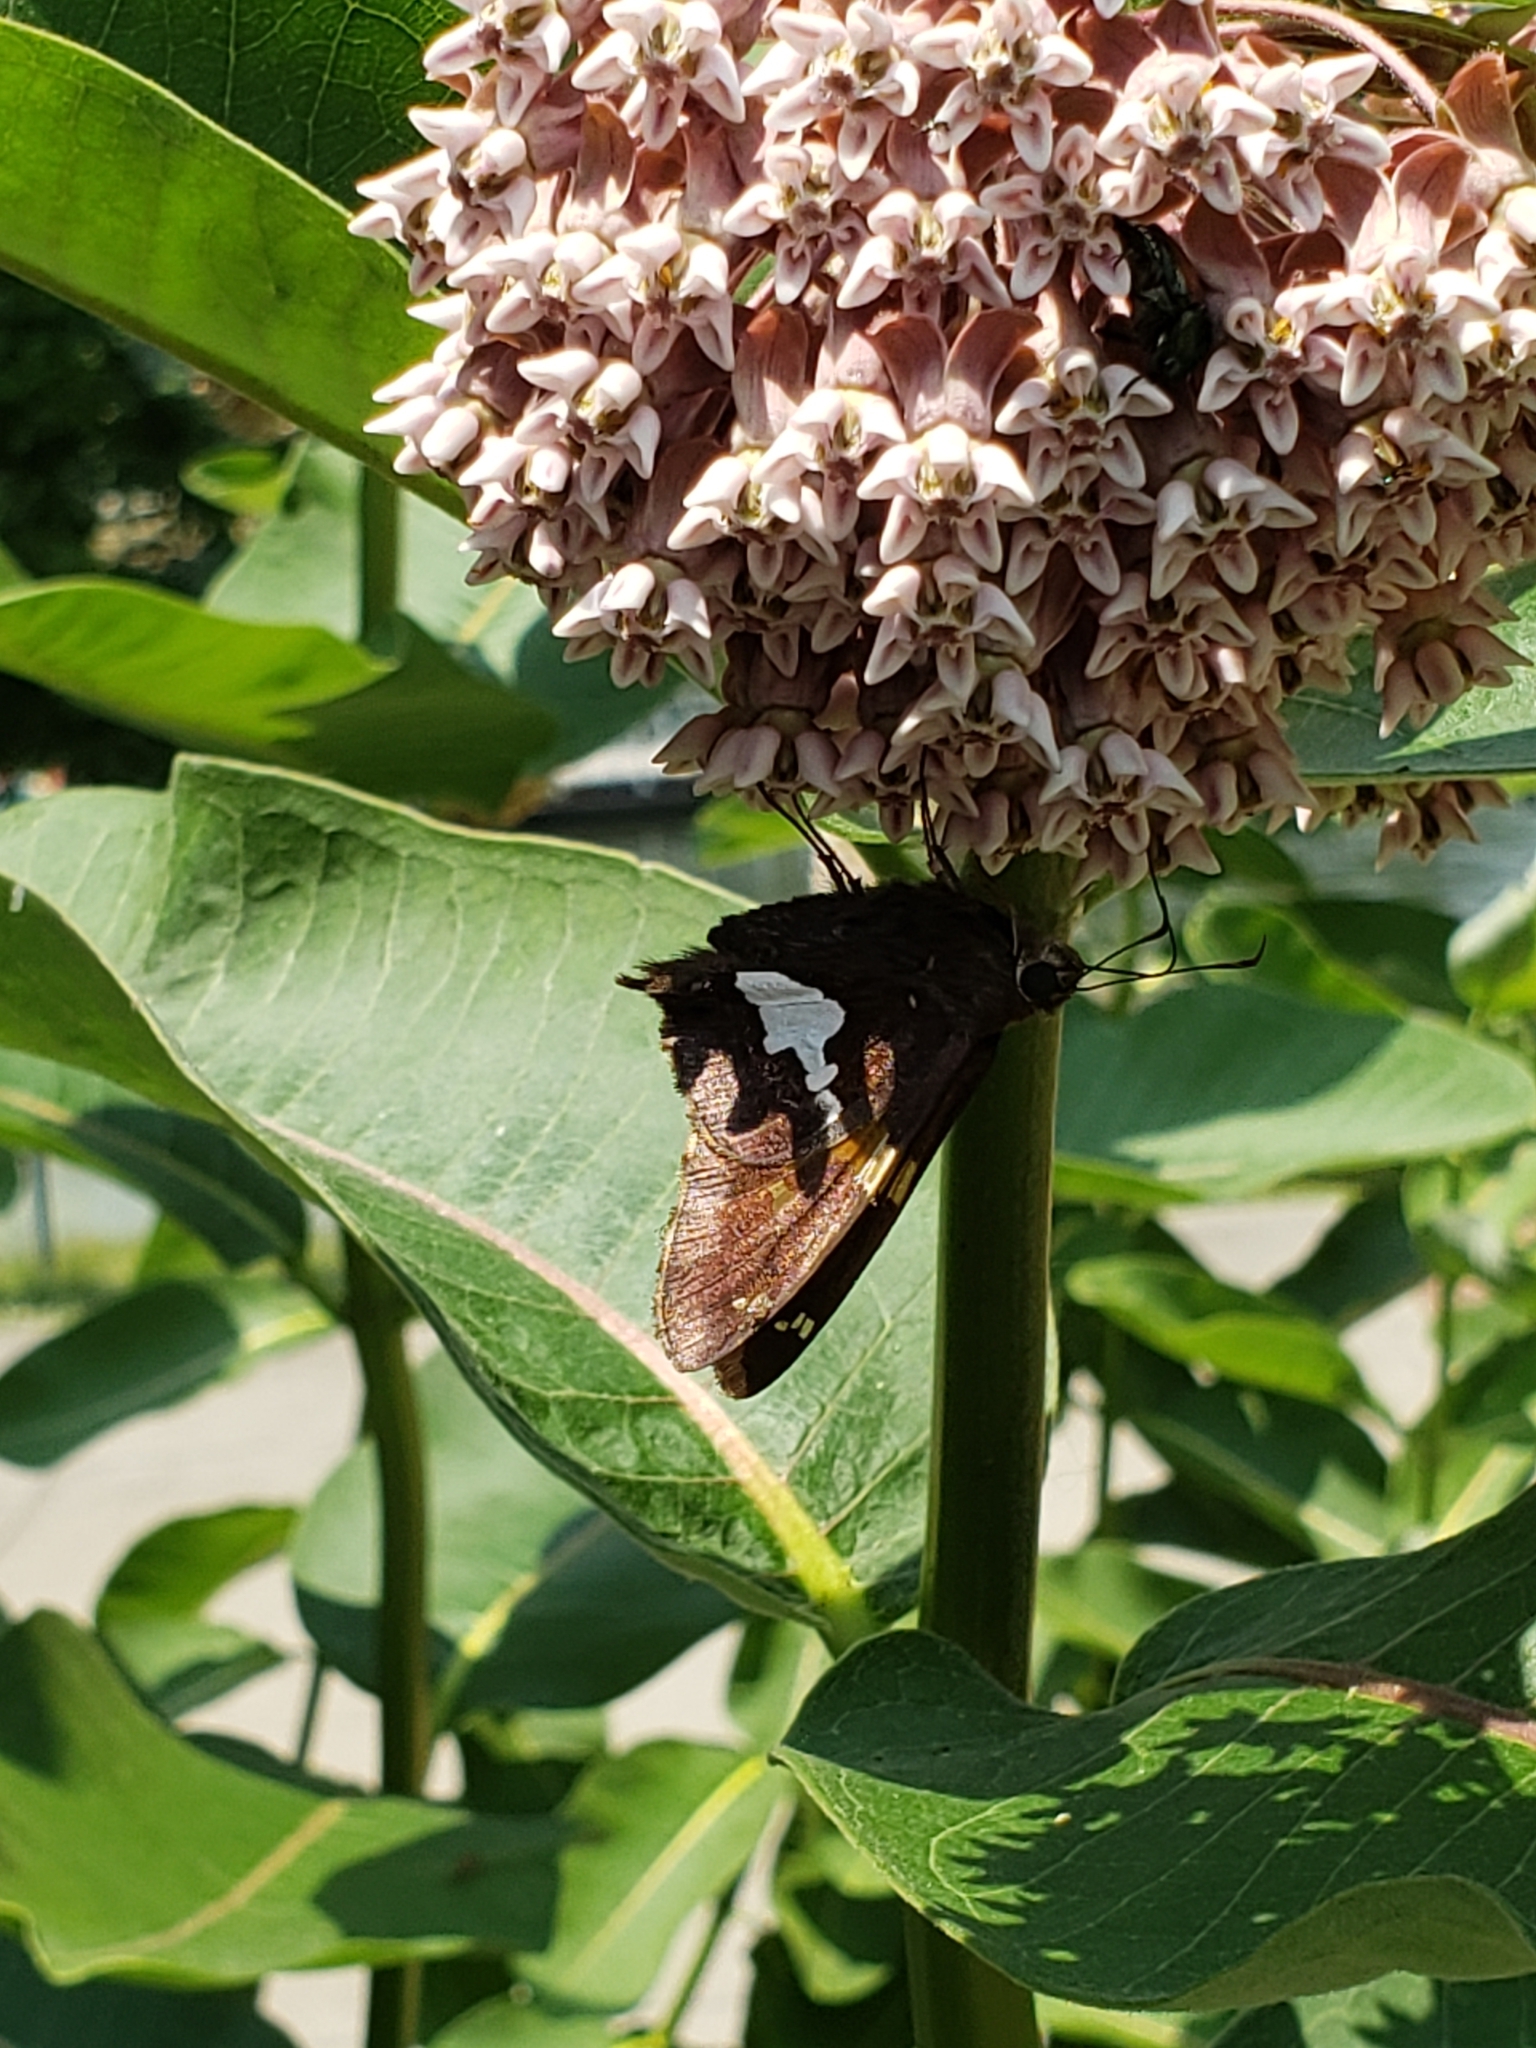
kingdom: Animalia
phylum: Arthropoda
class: Insecta
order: Lepidoptera
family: Hesperiidae
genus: Epargyreus
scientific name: Epargyreus clarus
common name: Silver-spotted skipper
